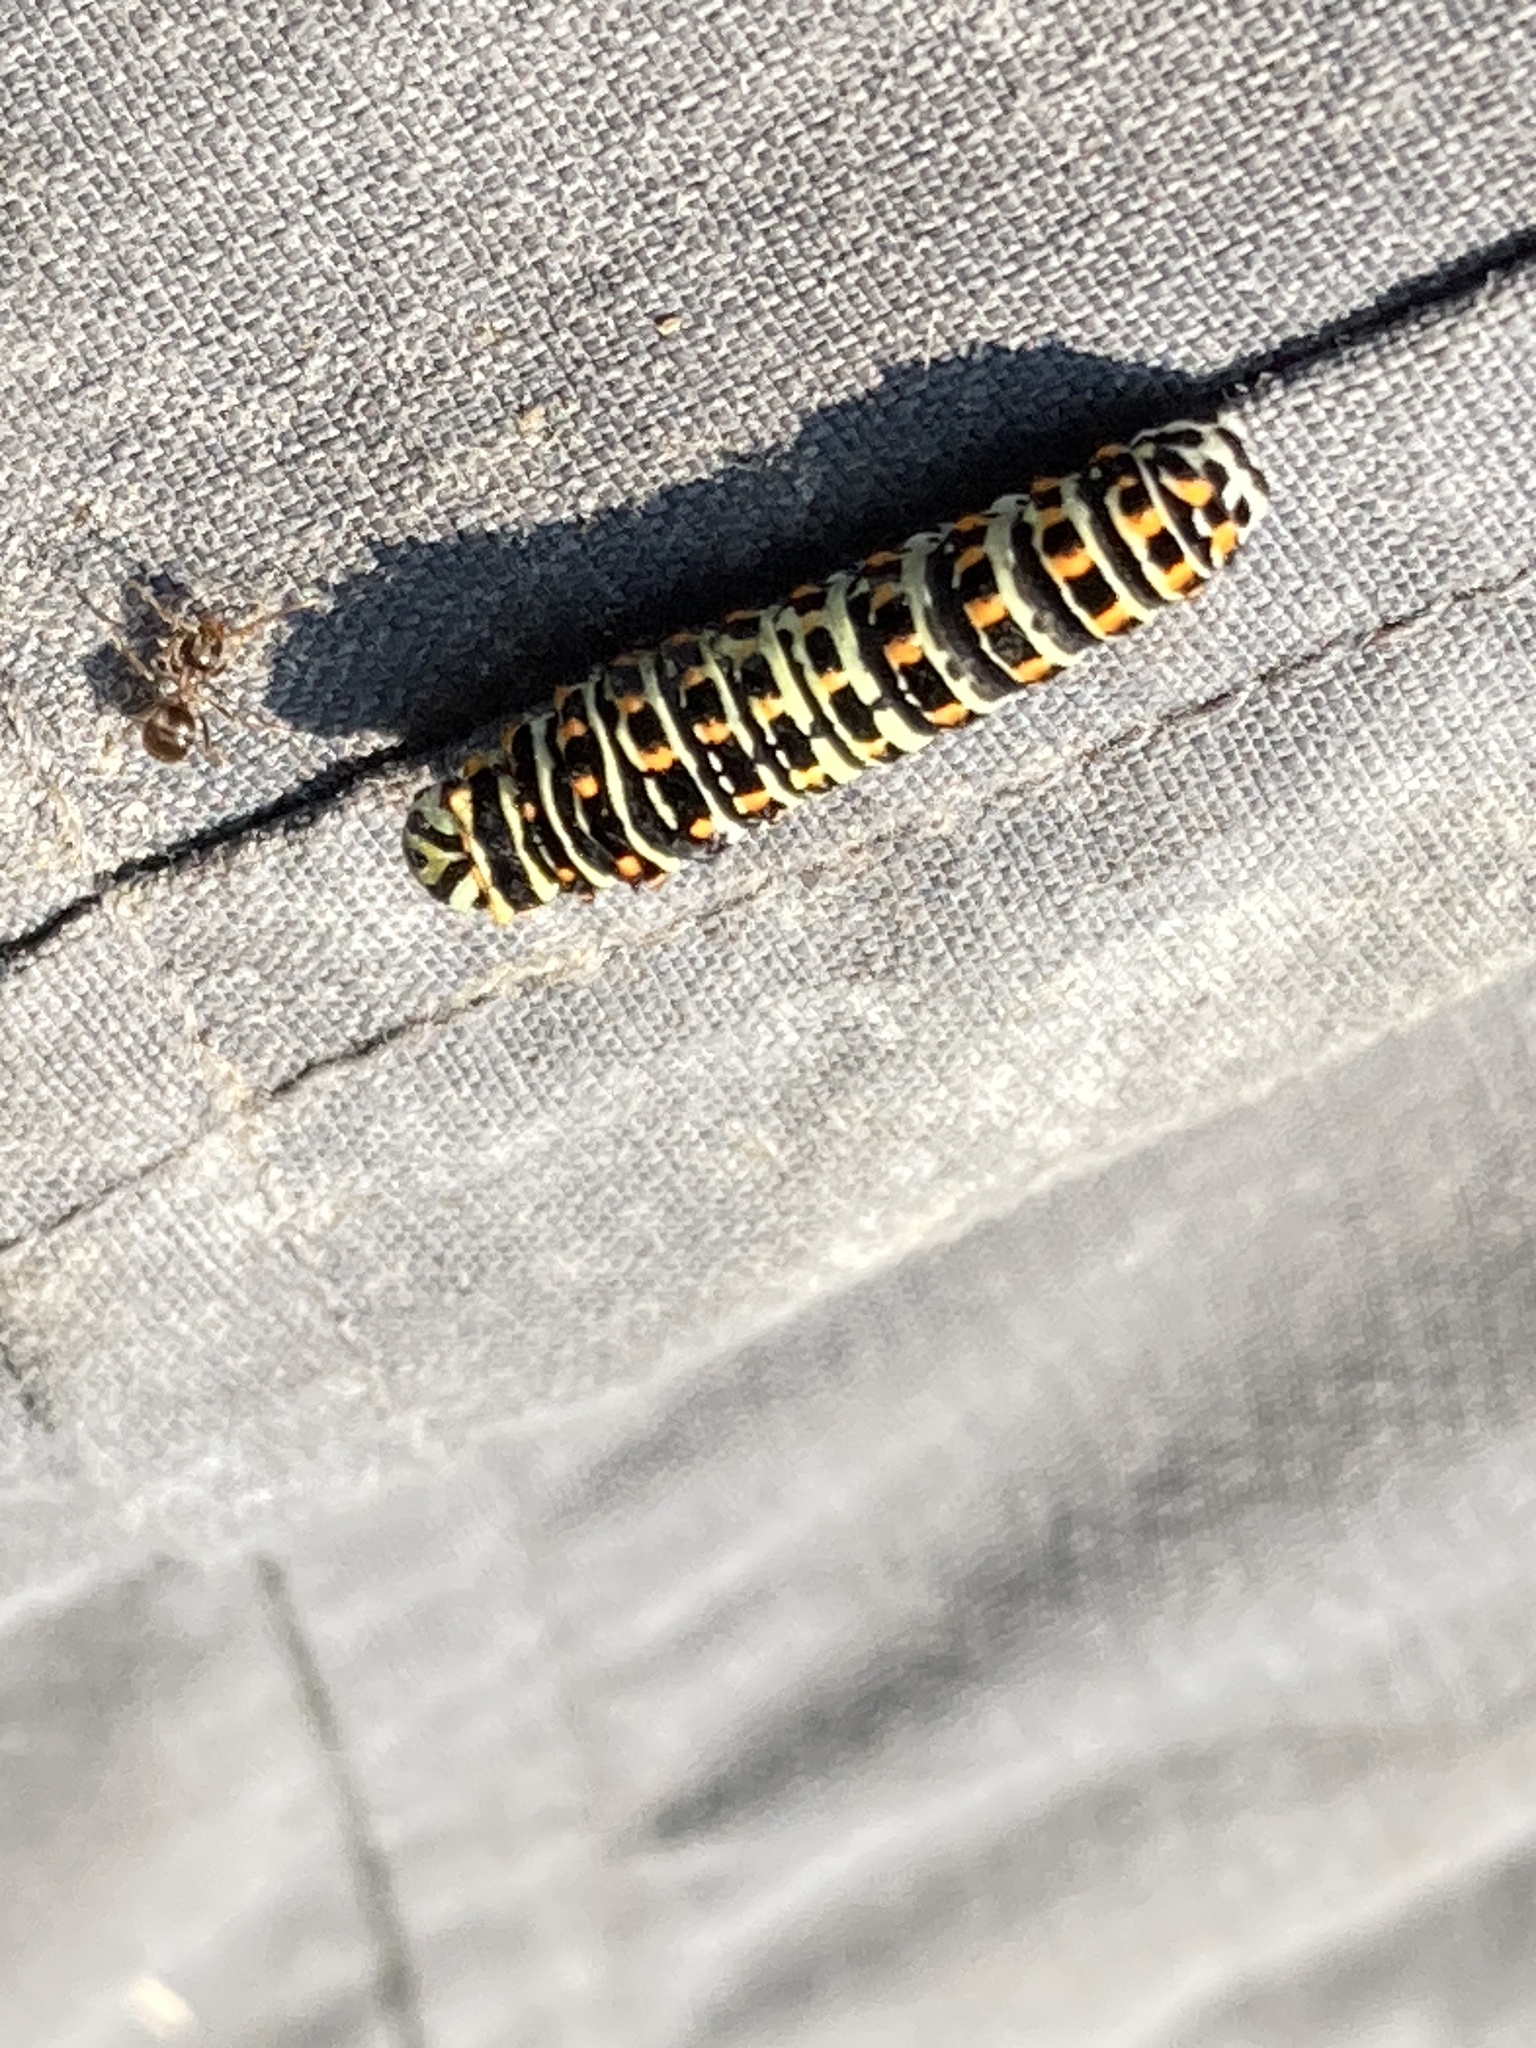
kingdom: Animalia
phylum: Arthropoda
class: Insecta
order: Lepidoptera
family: Papilionidae
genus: Papilio
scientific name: Papilio machaon
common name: Swallowtail
